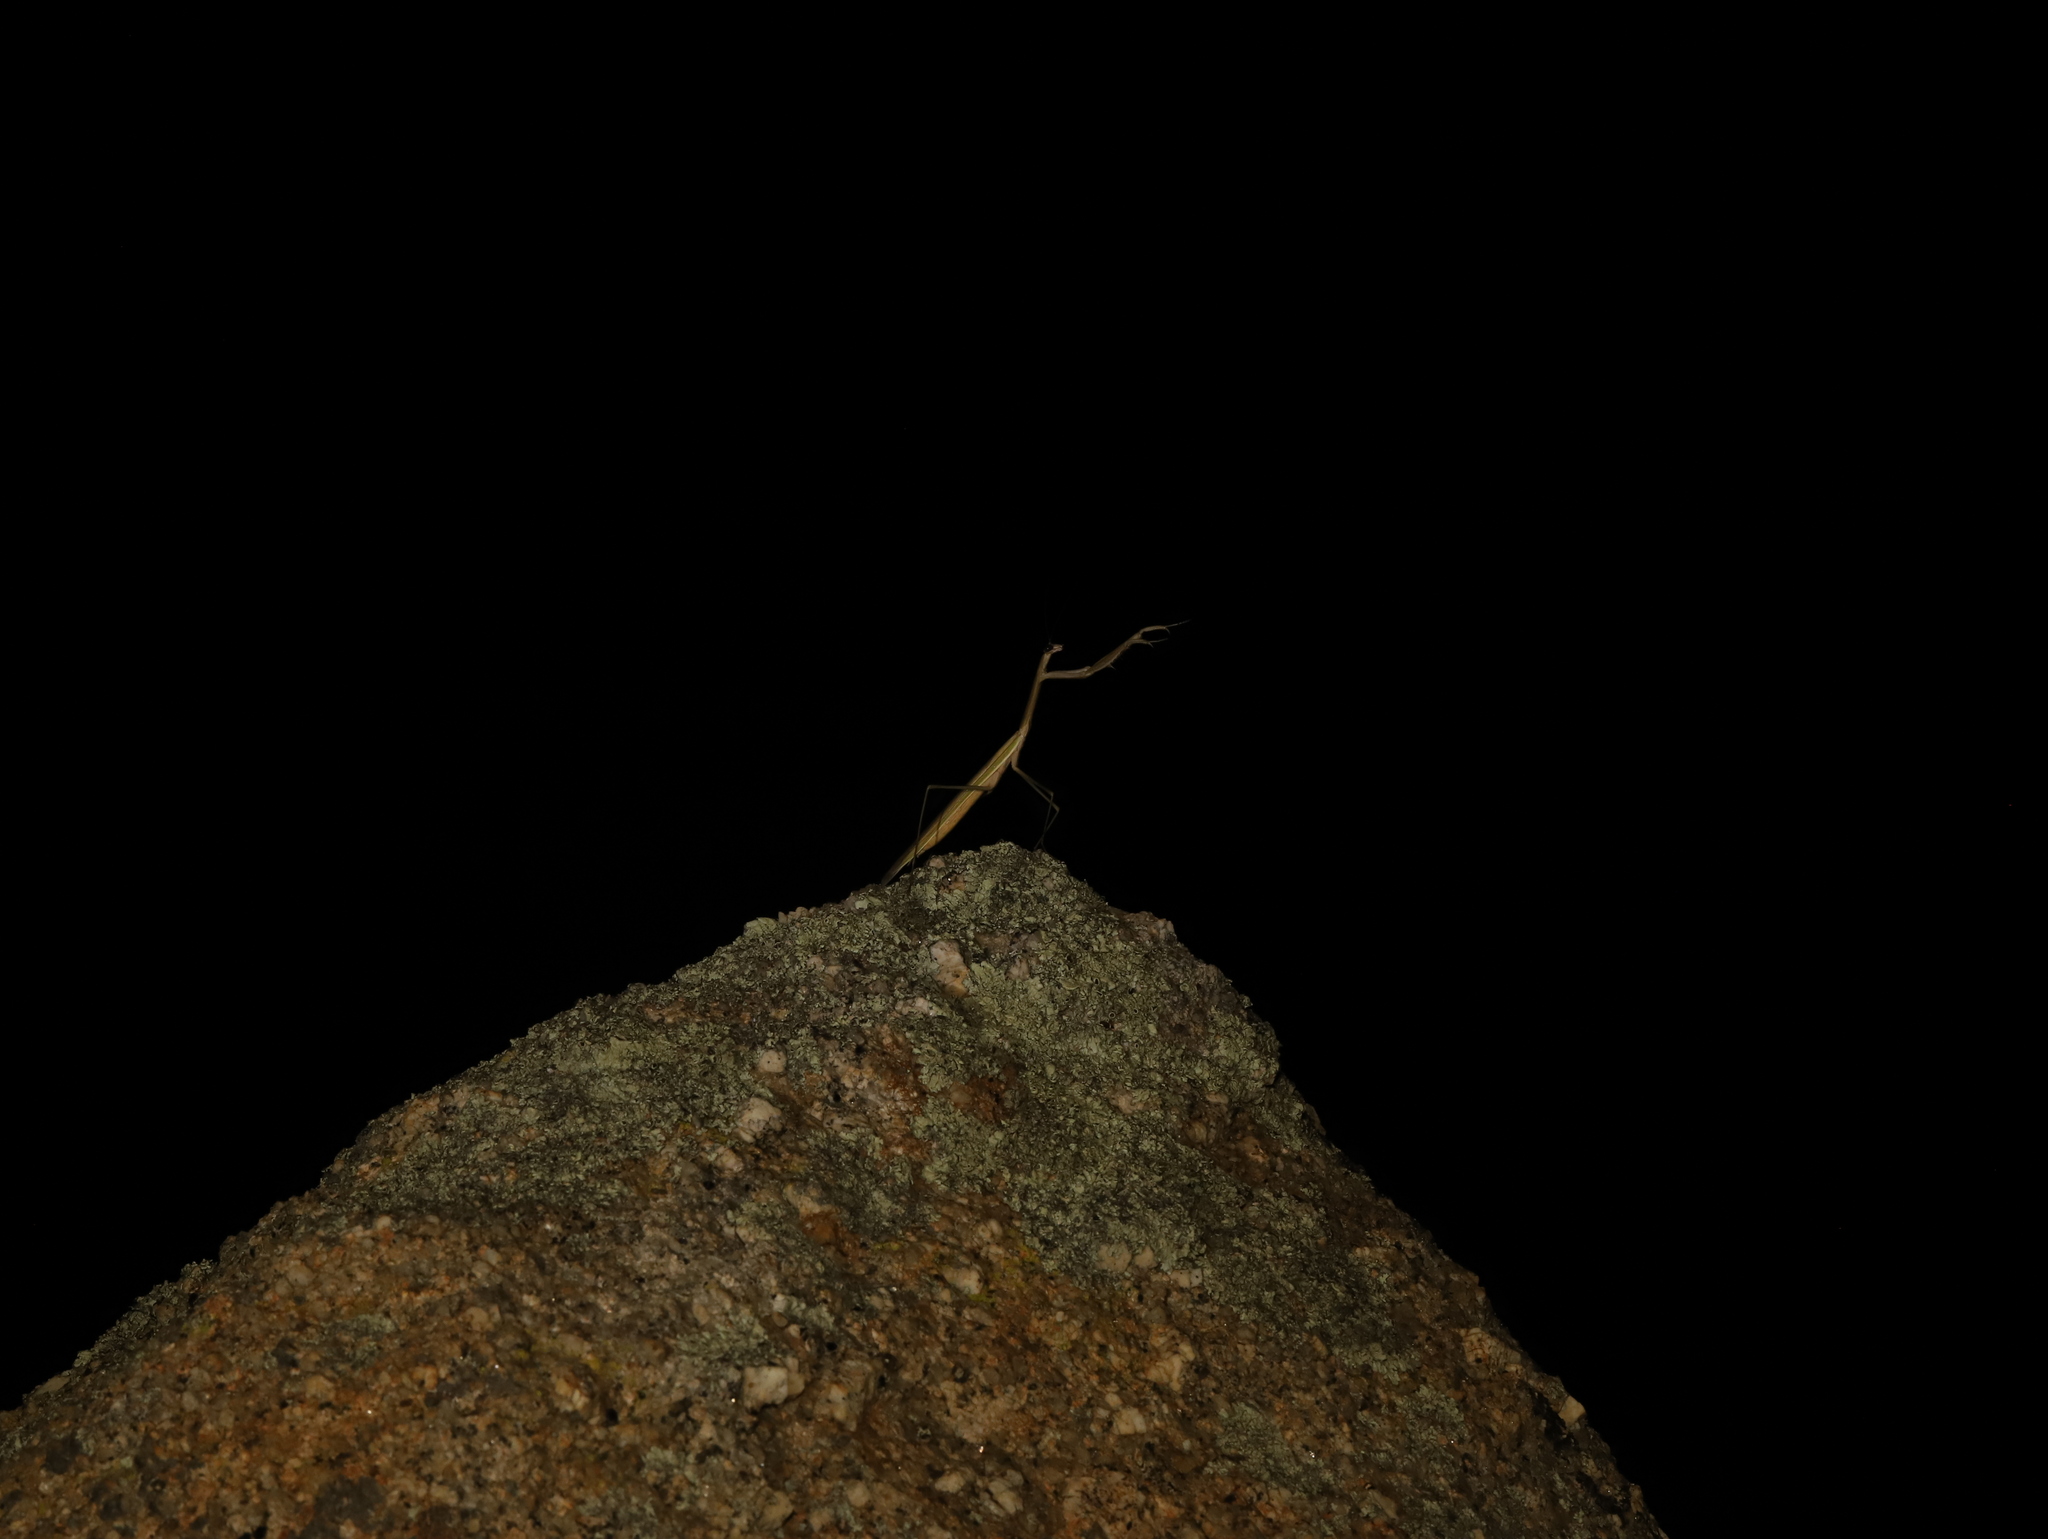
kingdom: Animalia
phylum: Arthropoda
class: Insecta
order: Mantodea
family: Mantidae
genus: Tenodera
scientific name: Tenodera australasiae
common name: Purple-winged mantis
